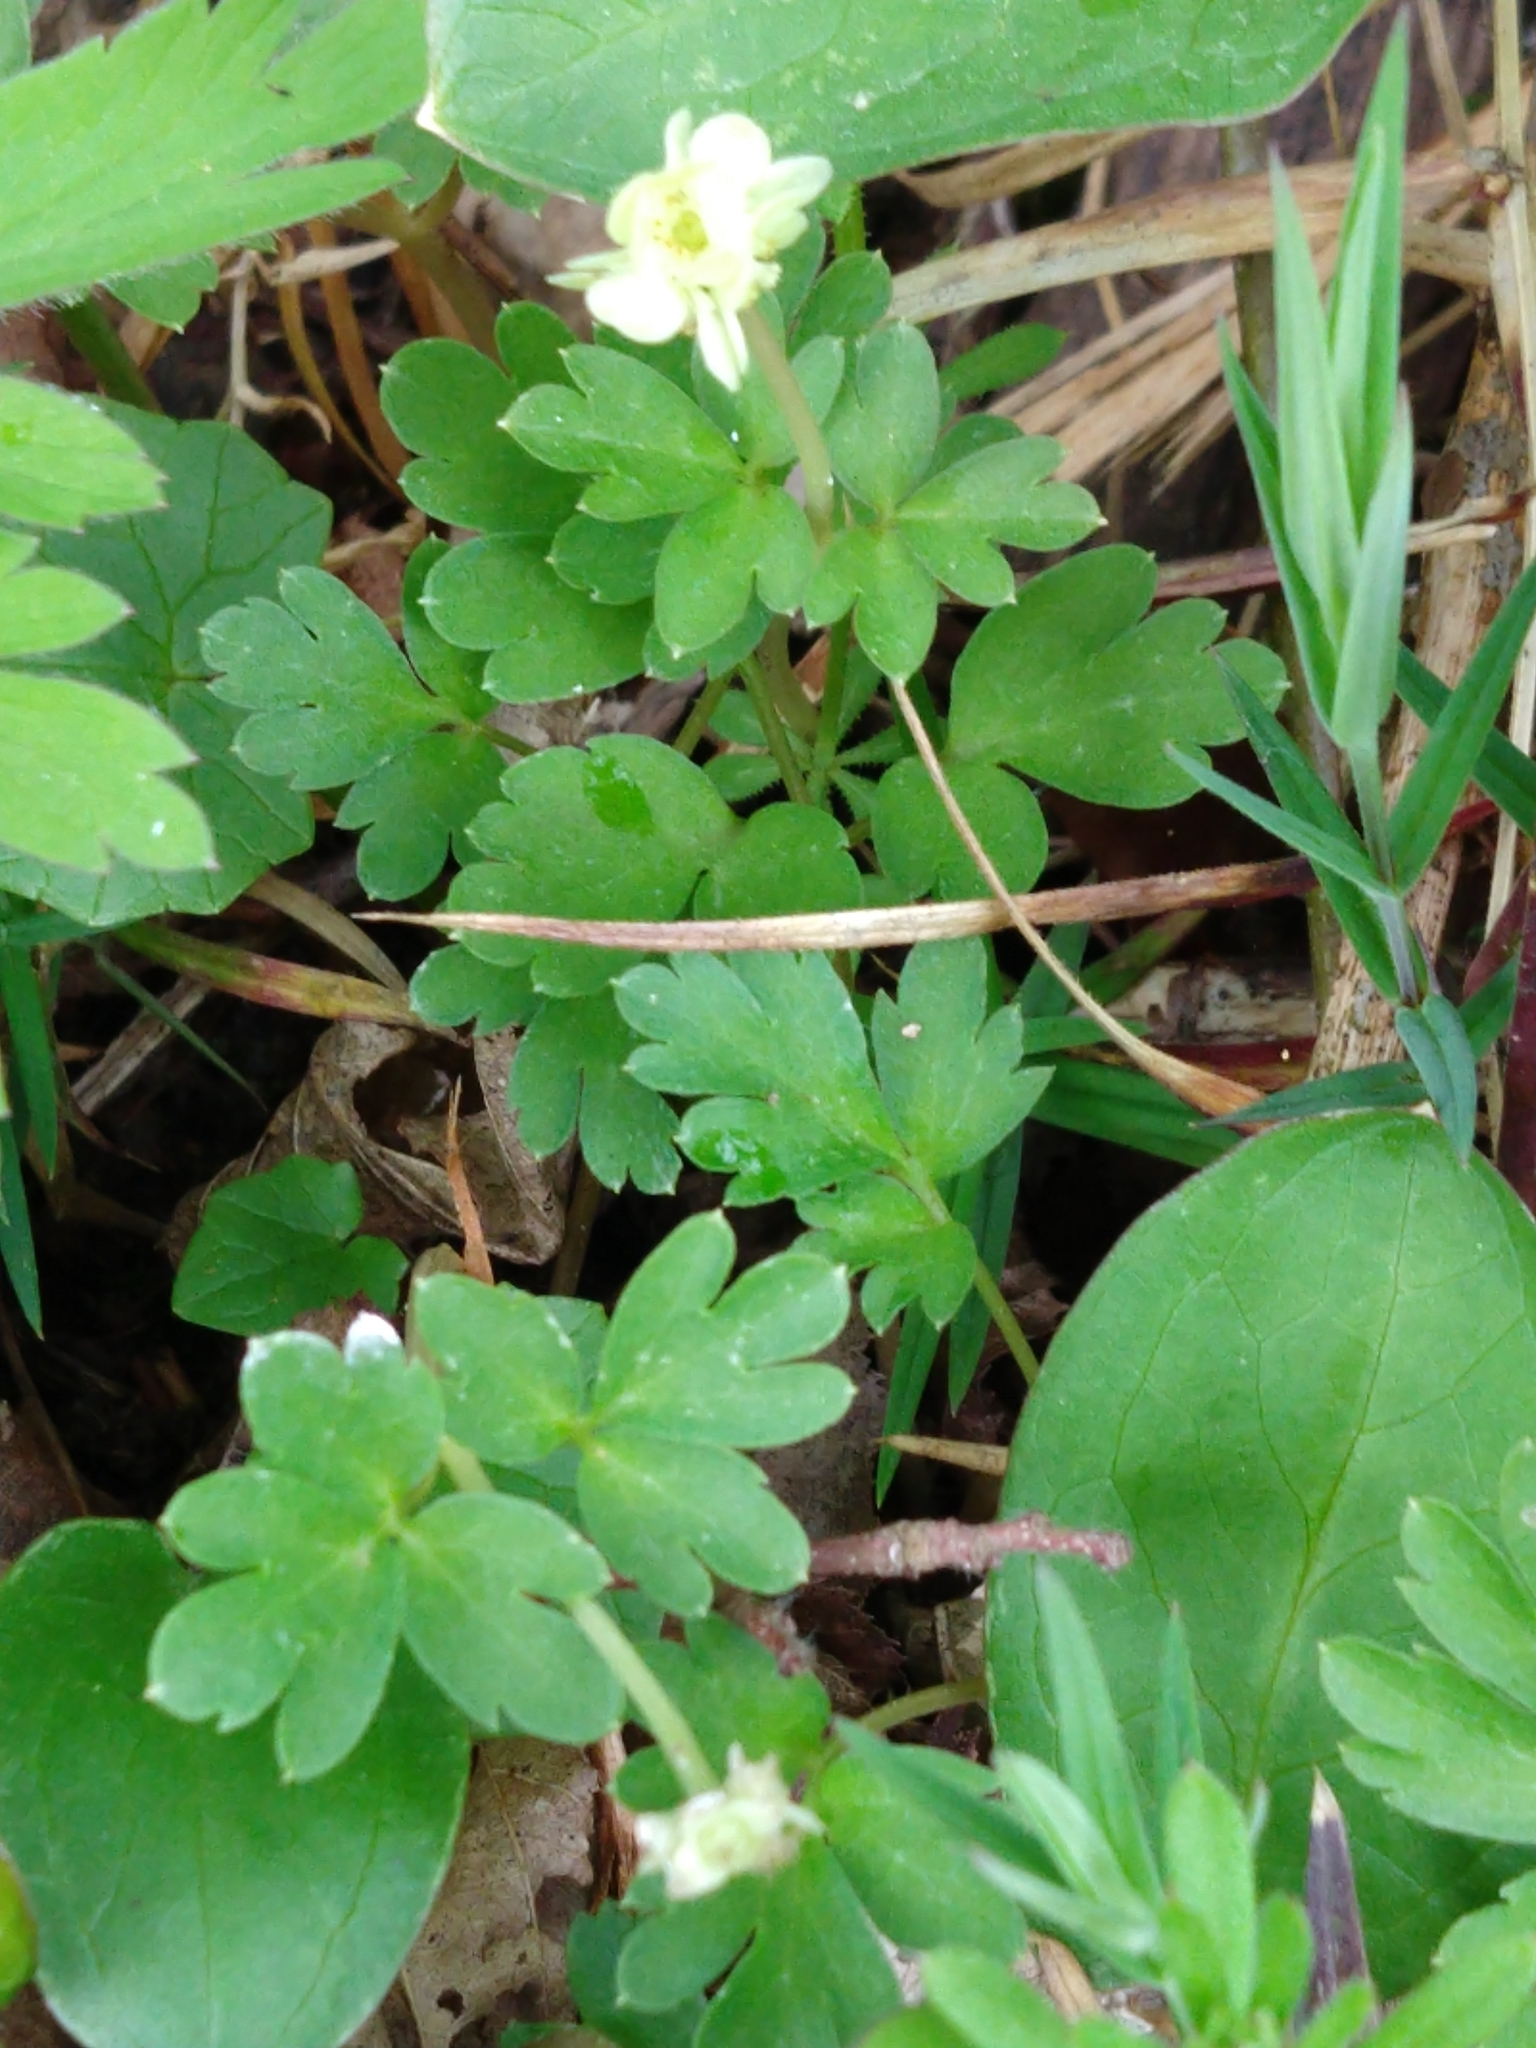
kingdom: Plantae
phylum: Tracheophyta
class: Magnoliopsida
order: Dipsacales
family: Viburnaceae
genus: Adoxa
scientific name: Adoxa moschatellina
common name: Moschatel
